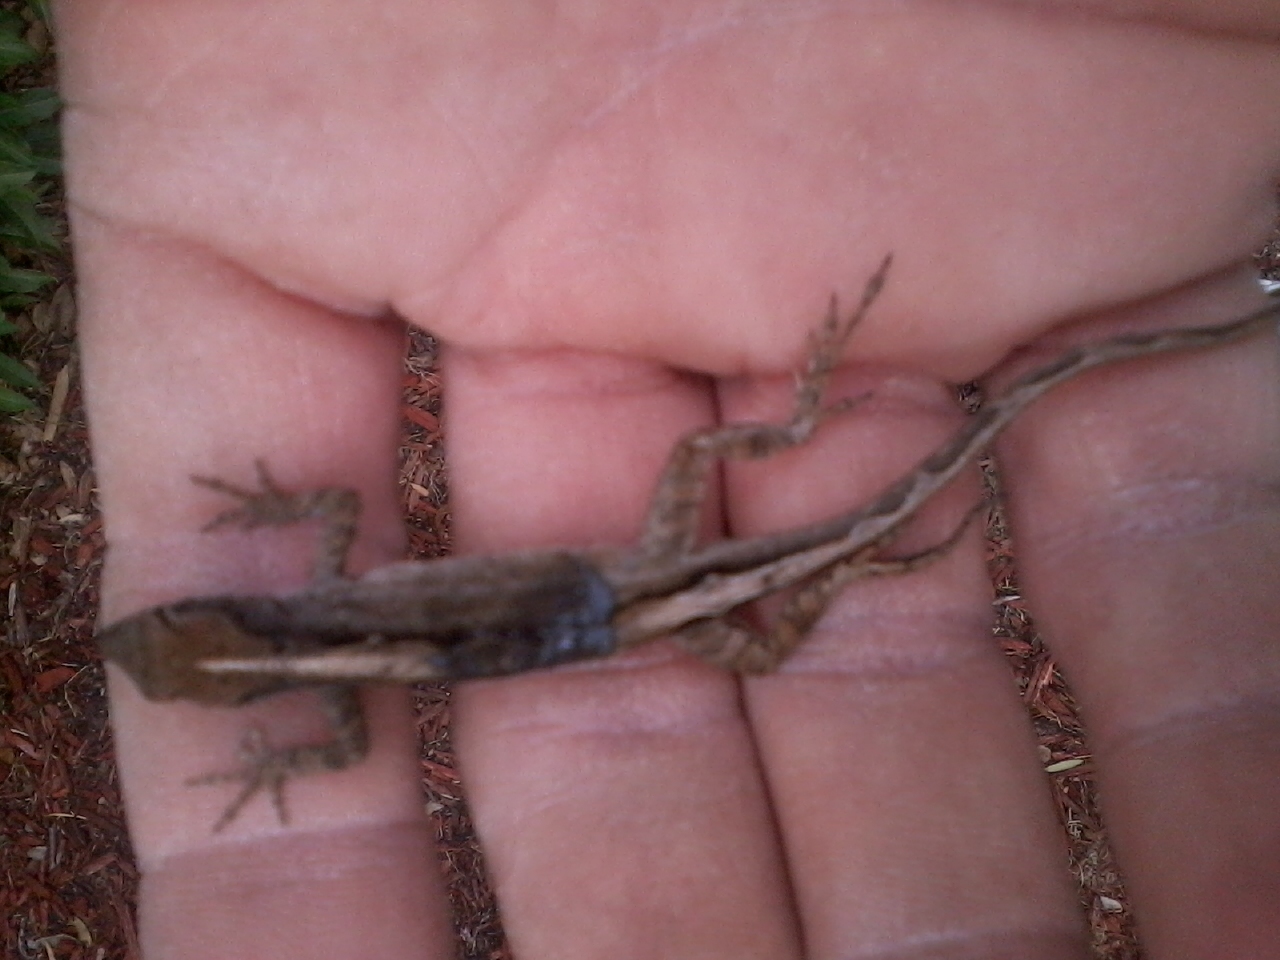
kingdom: Animalia
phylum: Chordata
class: Squamata
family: Dactyloidae
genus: Anolis
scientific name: Anolis sagrei
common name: Brown anole
